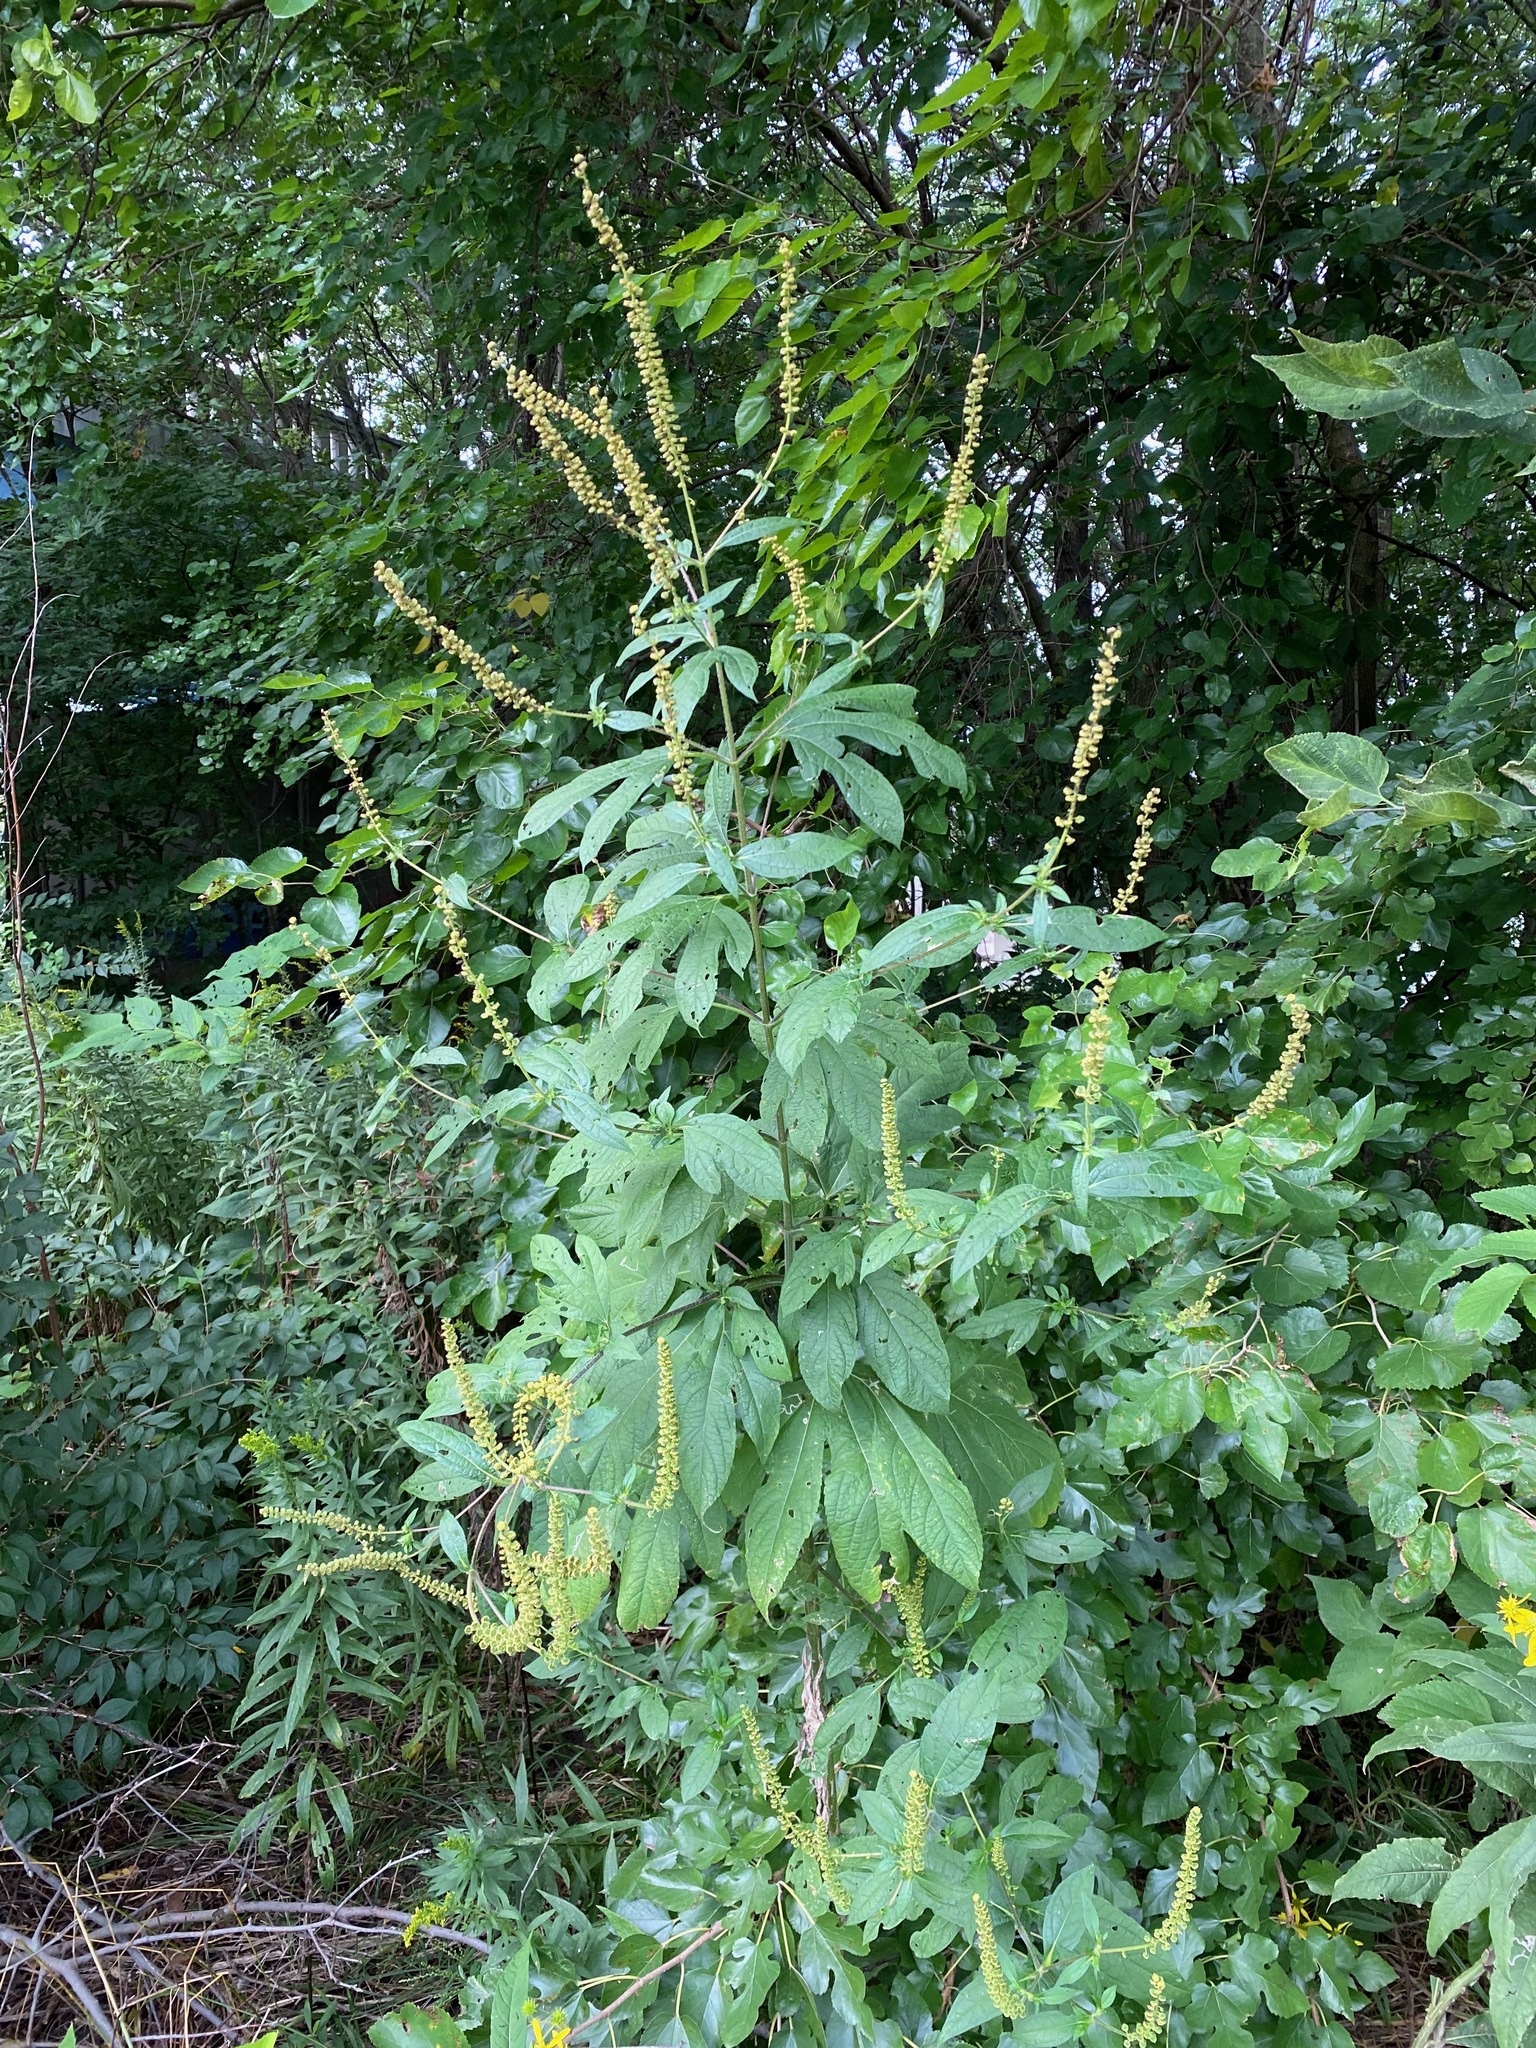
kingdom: Plantae
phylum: Tracheophyta
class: Magnoliopsida
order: Asterales
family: Asteraceae
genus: Ambrosia
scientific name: Ambrosia trifida
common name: Giant ragweed
